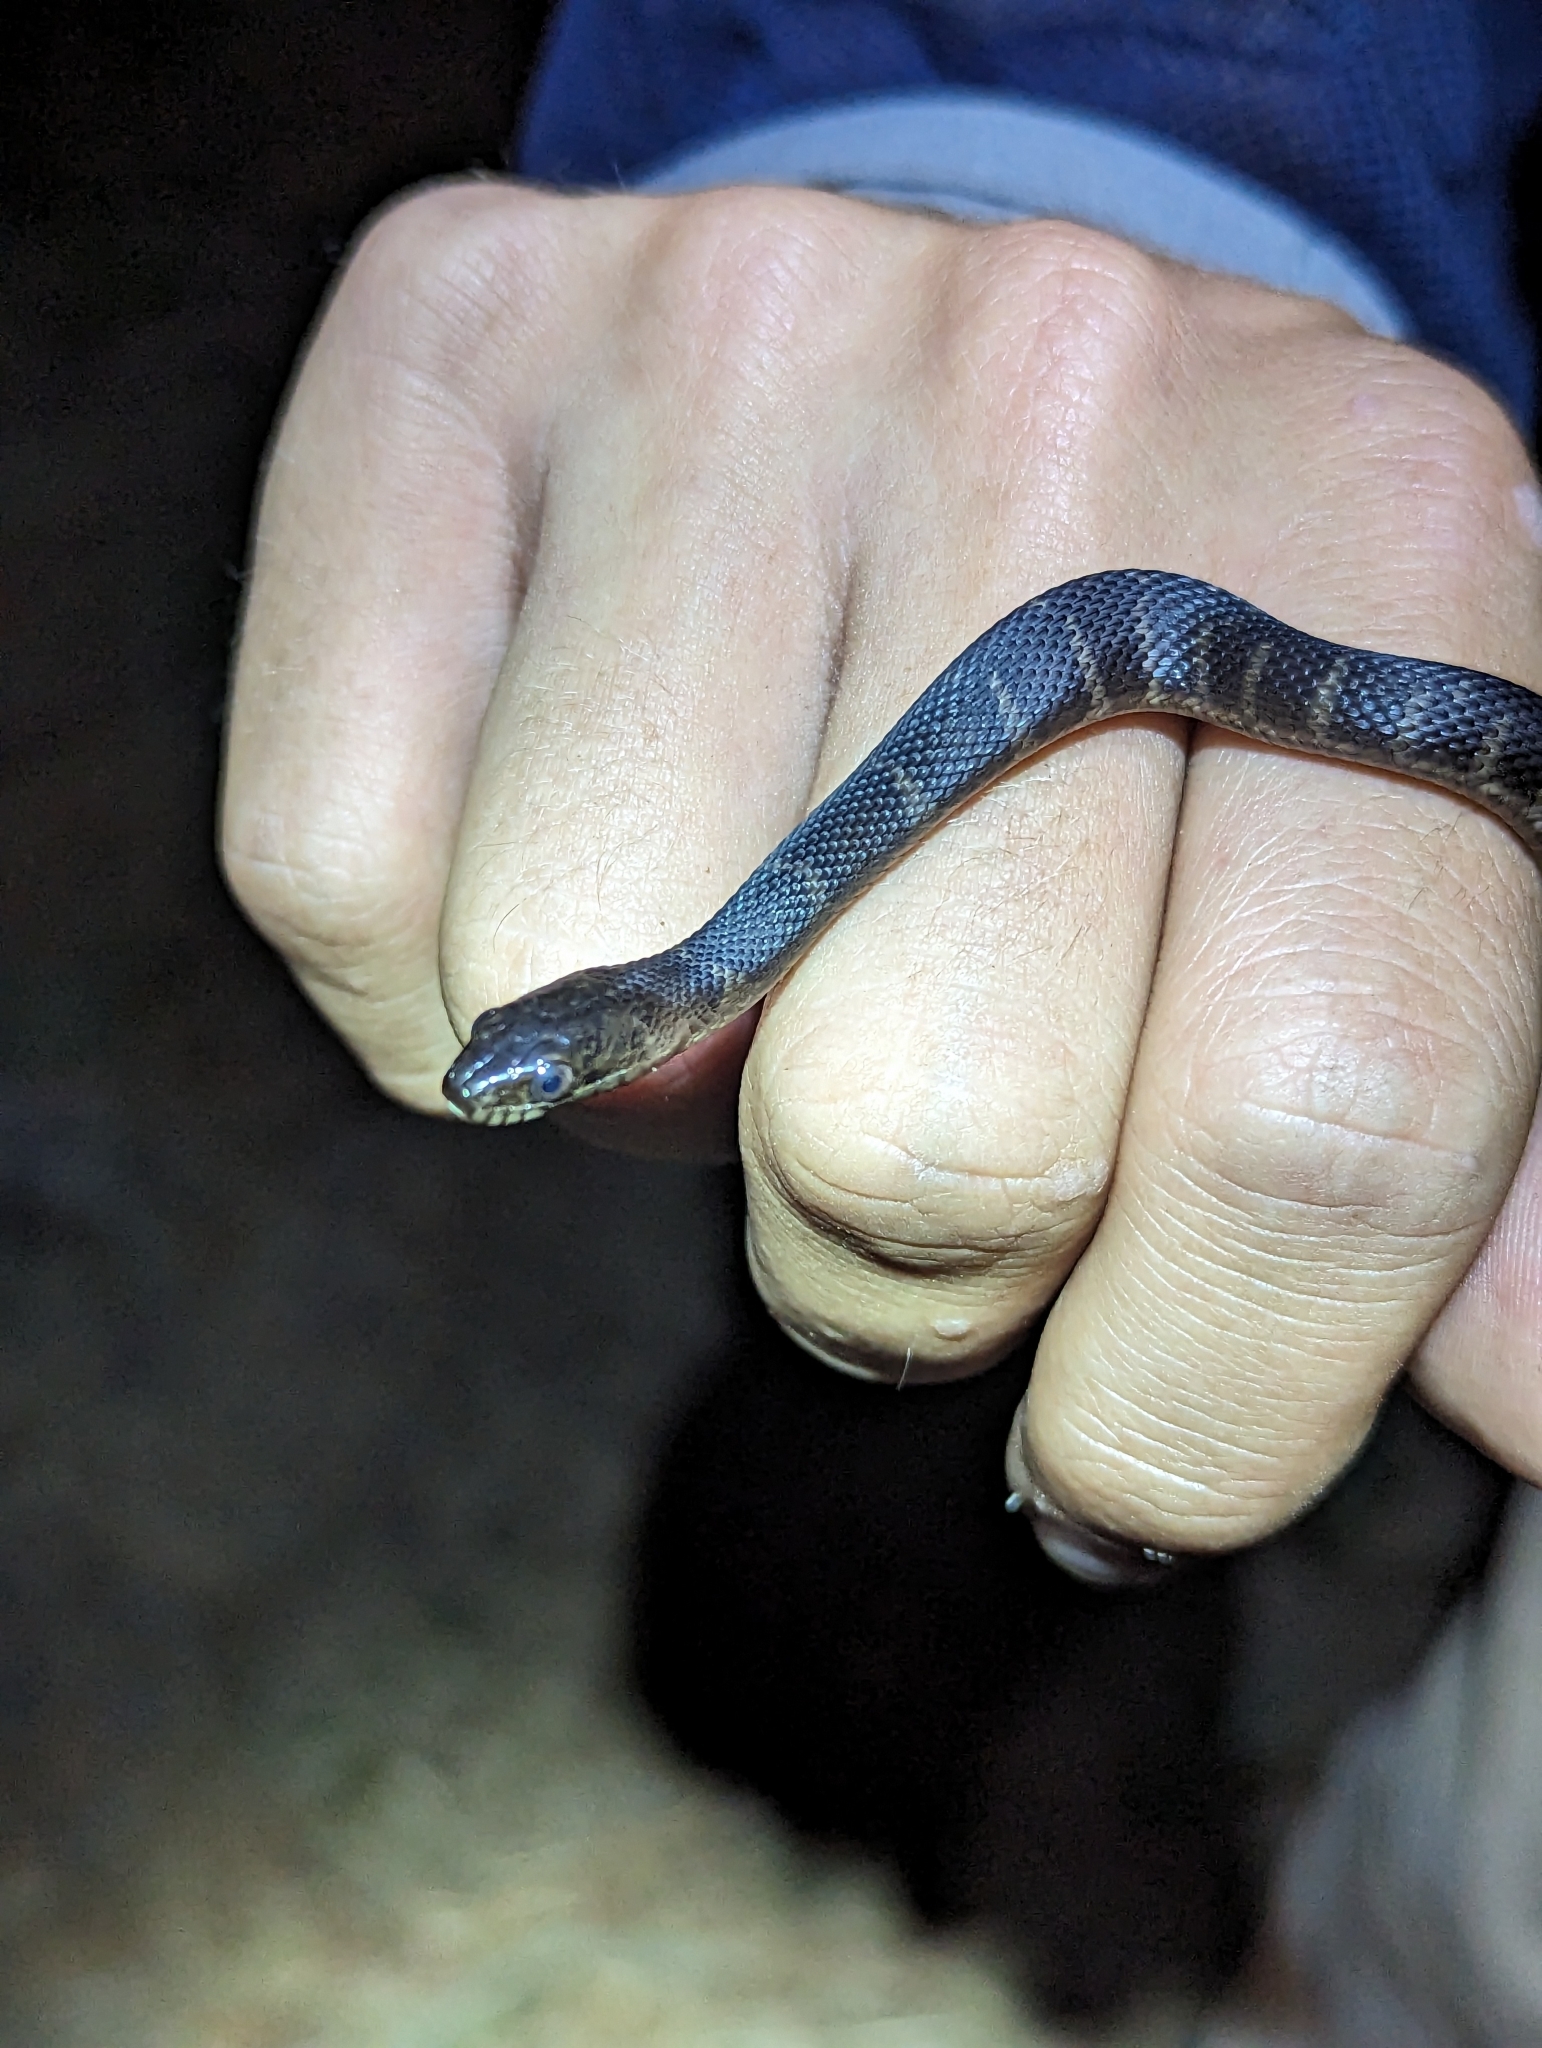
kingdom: Animalia
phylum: Chordata
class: Squamata
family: Colubridae
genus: Nerodia
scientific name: Nerodia sipedon
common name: Northern water snake
